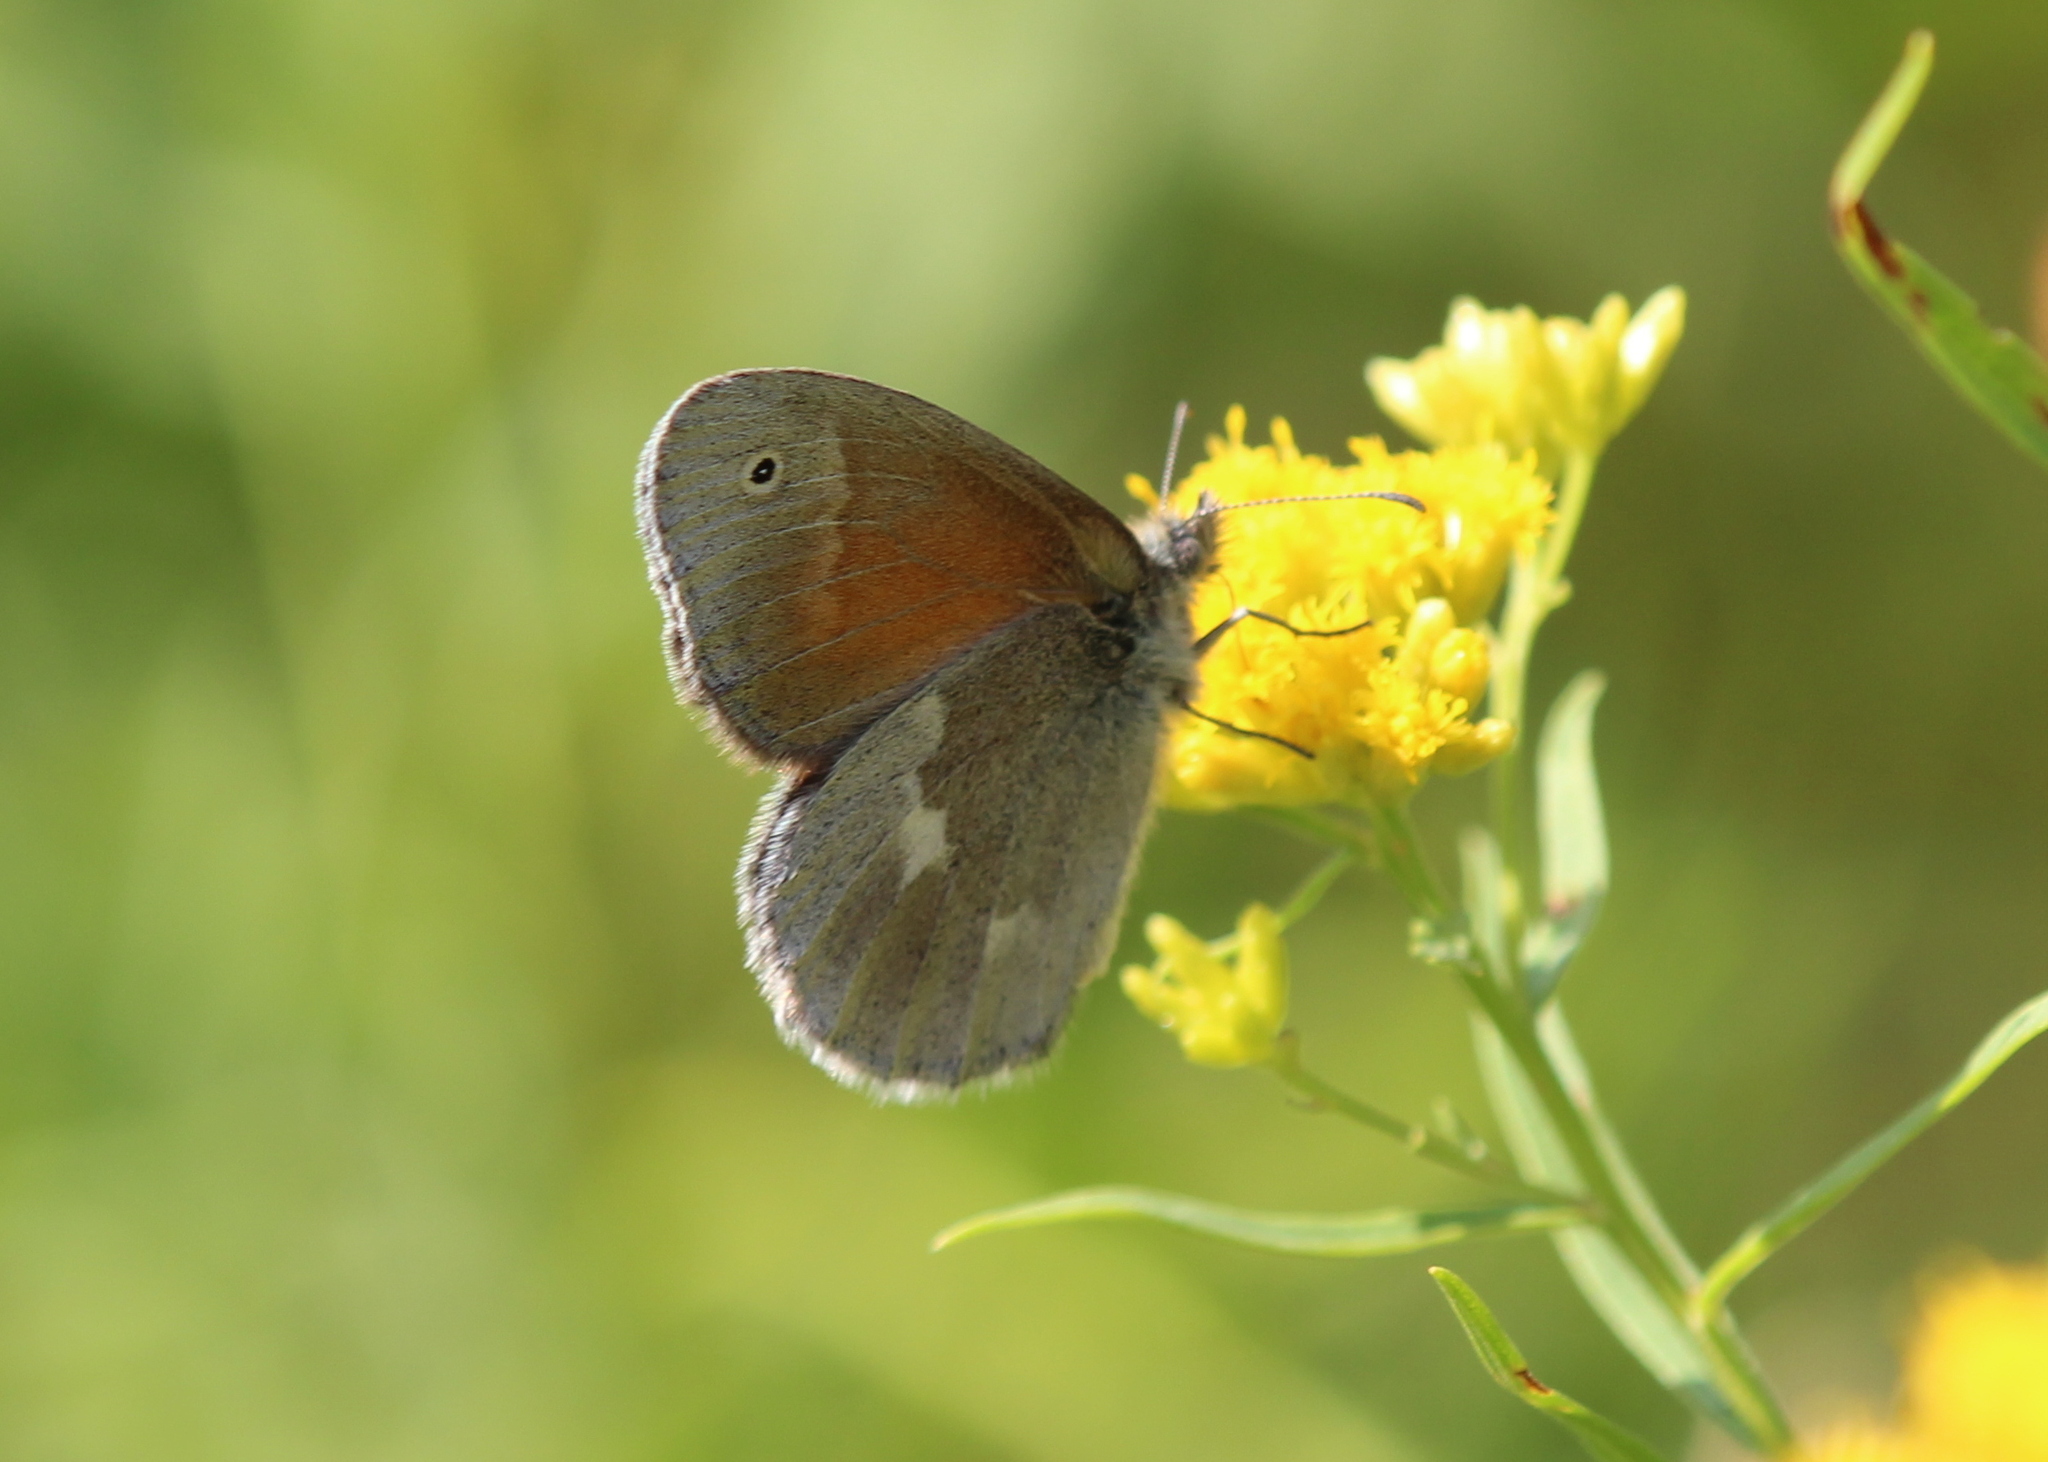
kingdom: Animalia
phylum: Arthropoda
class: Insecta
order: Lepidoptera
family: Nymphalidae
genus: Coenonympha
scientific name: Coenonympha california
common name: Common ringlet
